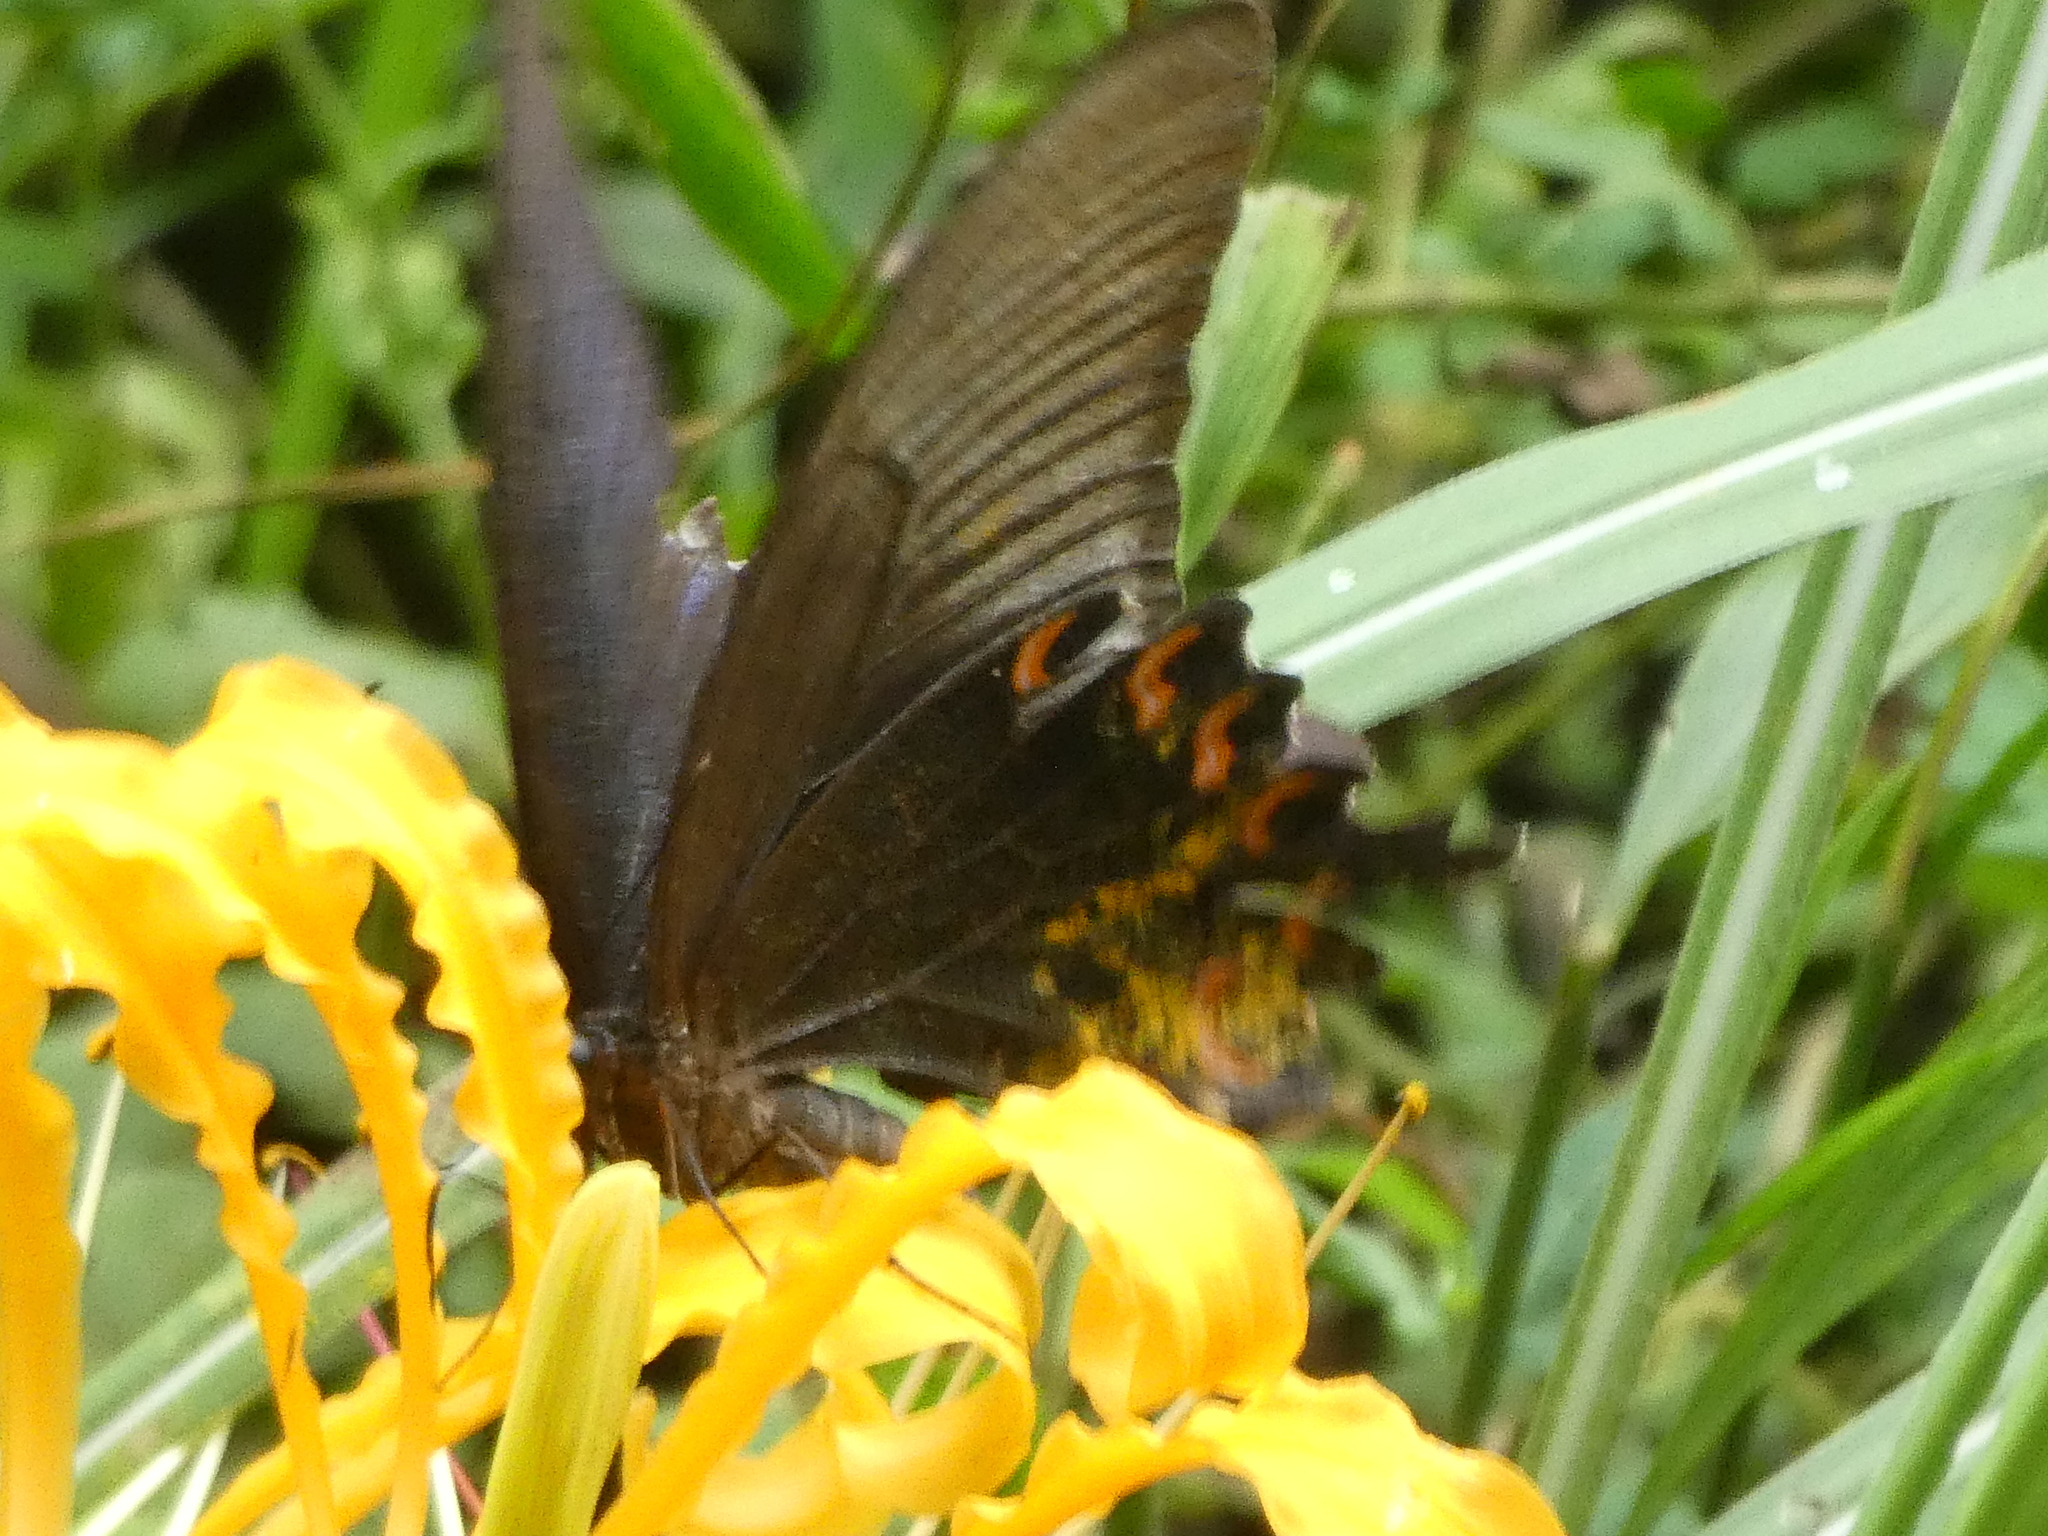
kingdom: Animalia
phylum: Arthropoda
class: Insecta
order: Lepidoptera
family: Papilionidae
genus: Papilio
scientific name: Papilio bianor
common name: Common peacock
